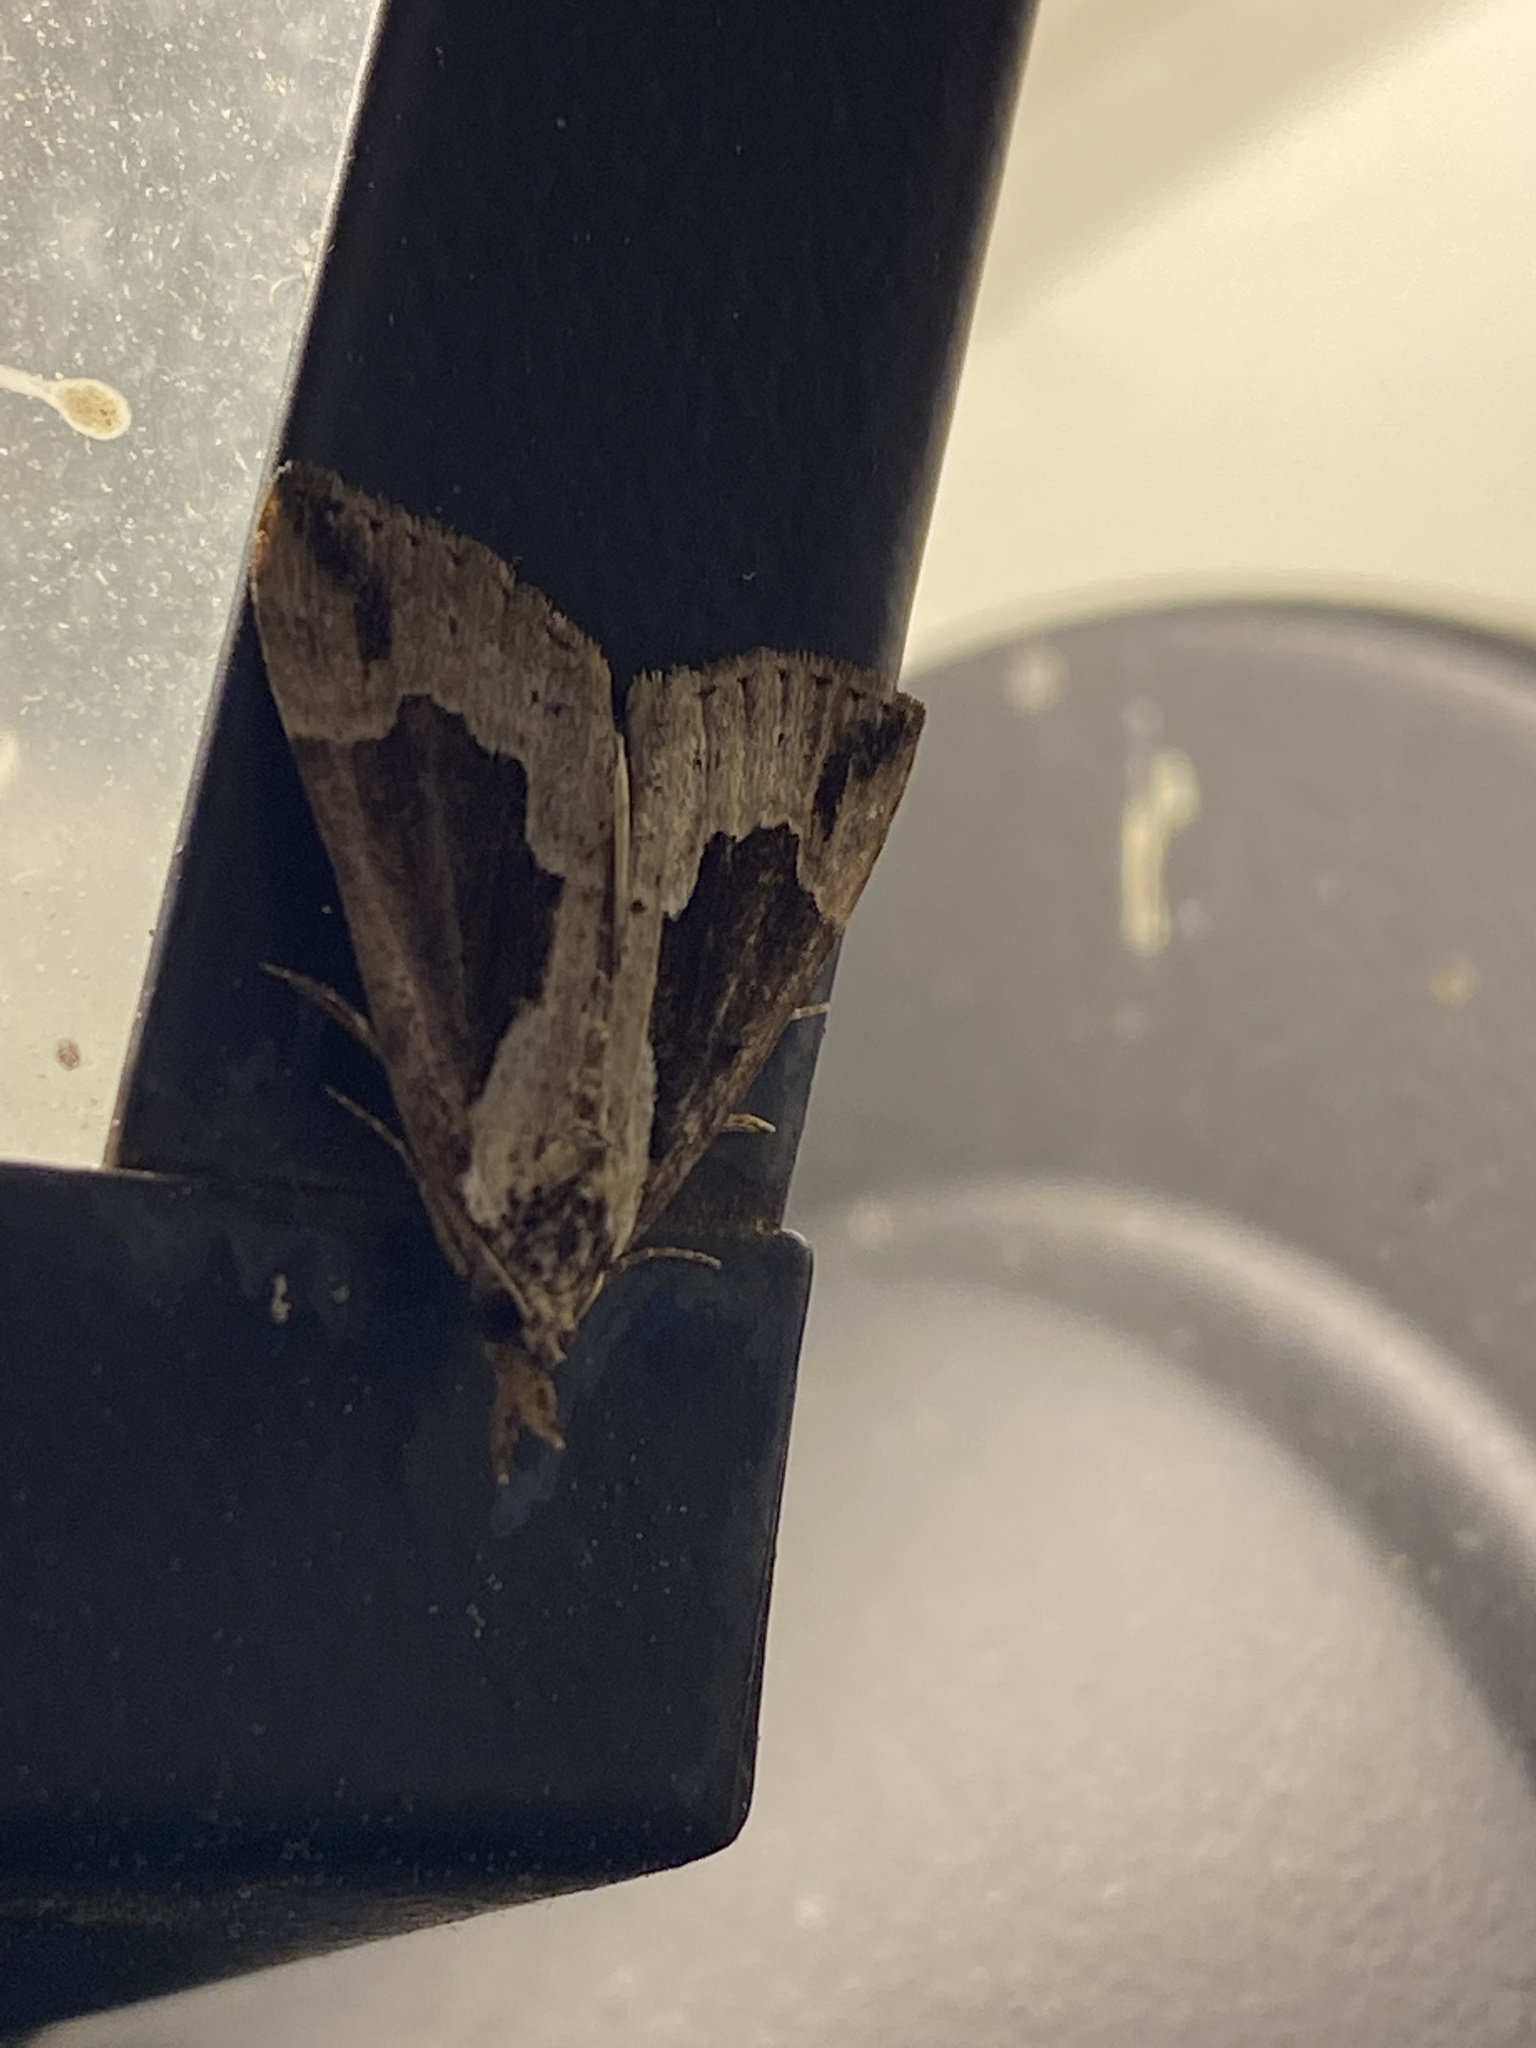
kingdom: Animalia
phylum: Arthropoda
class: Insecta
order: Lepidoptera
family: Erebidae
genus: Hypena
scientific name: Hypena baltimoralis
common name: Baltimore snout
